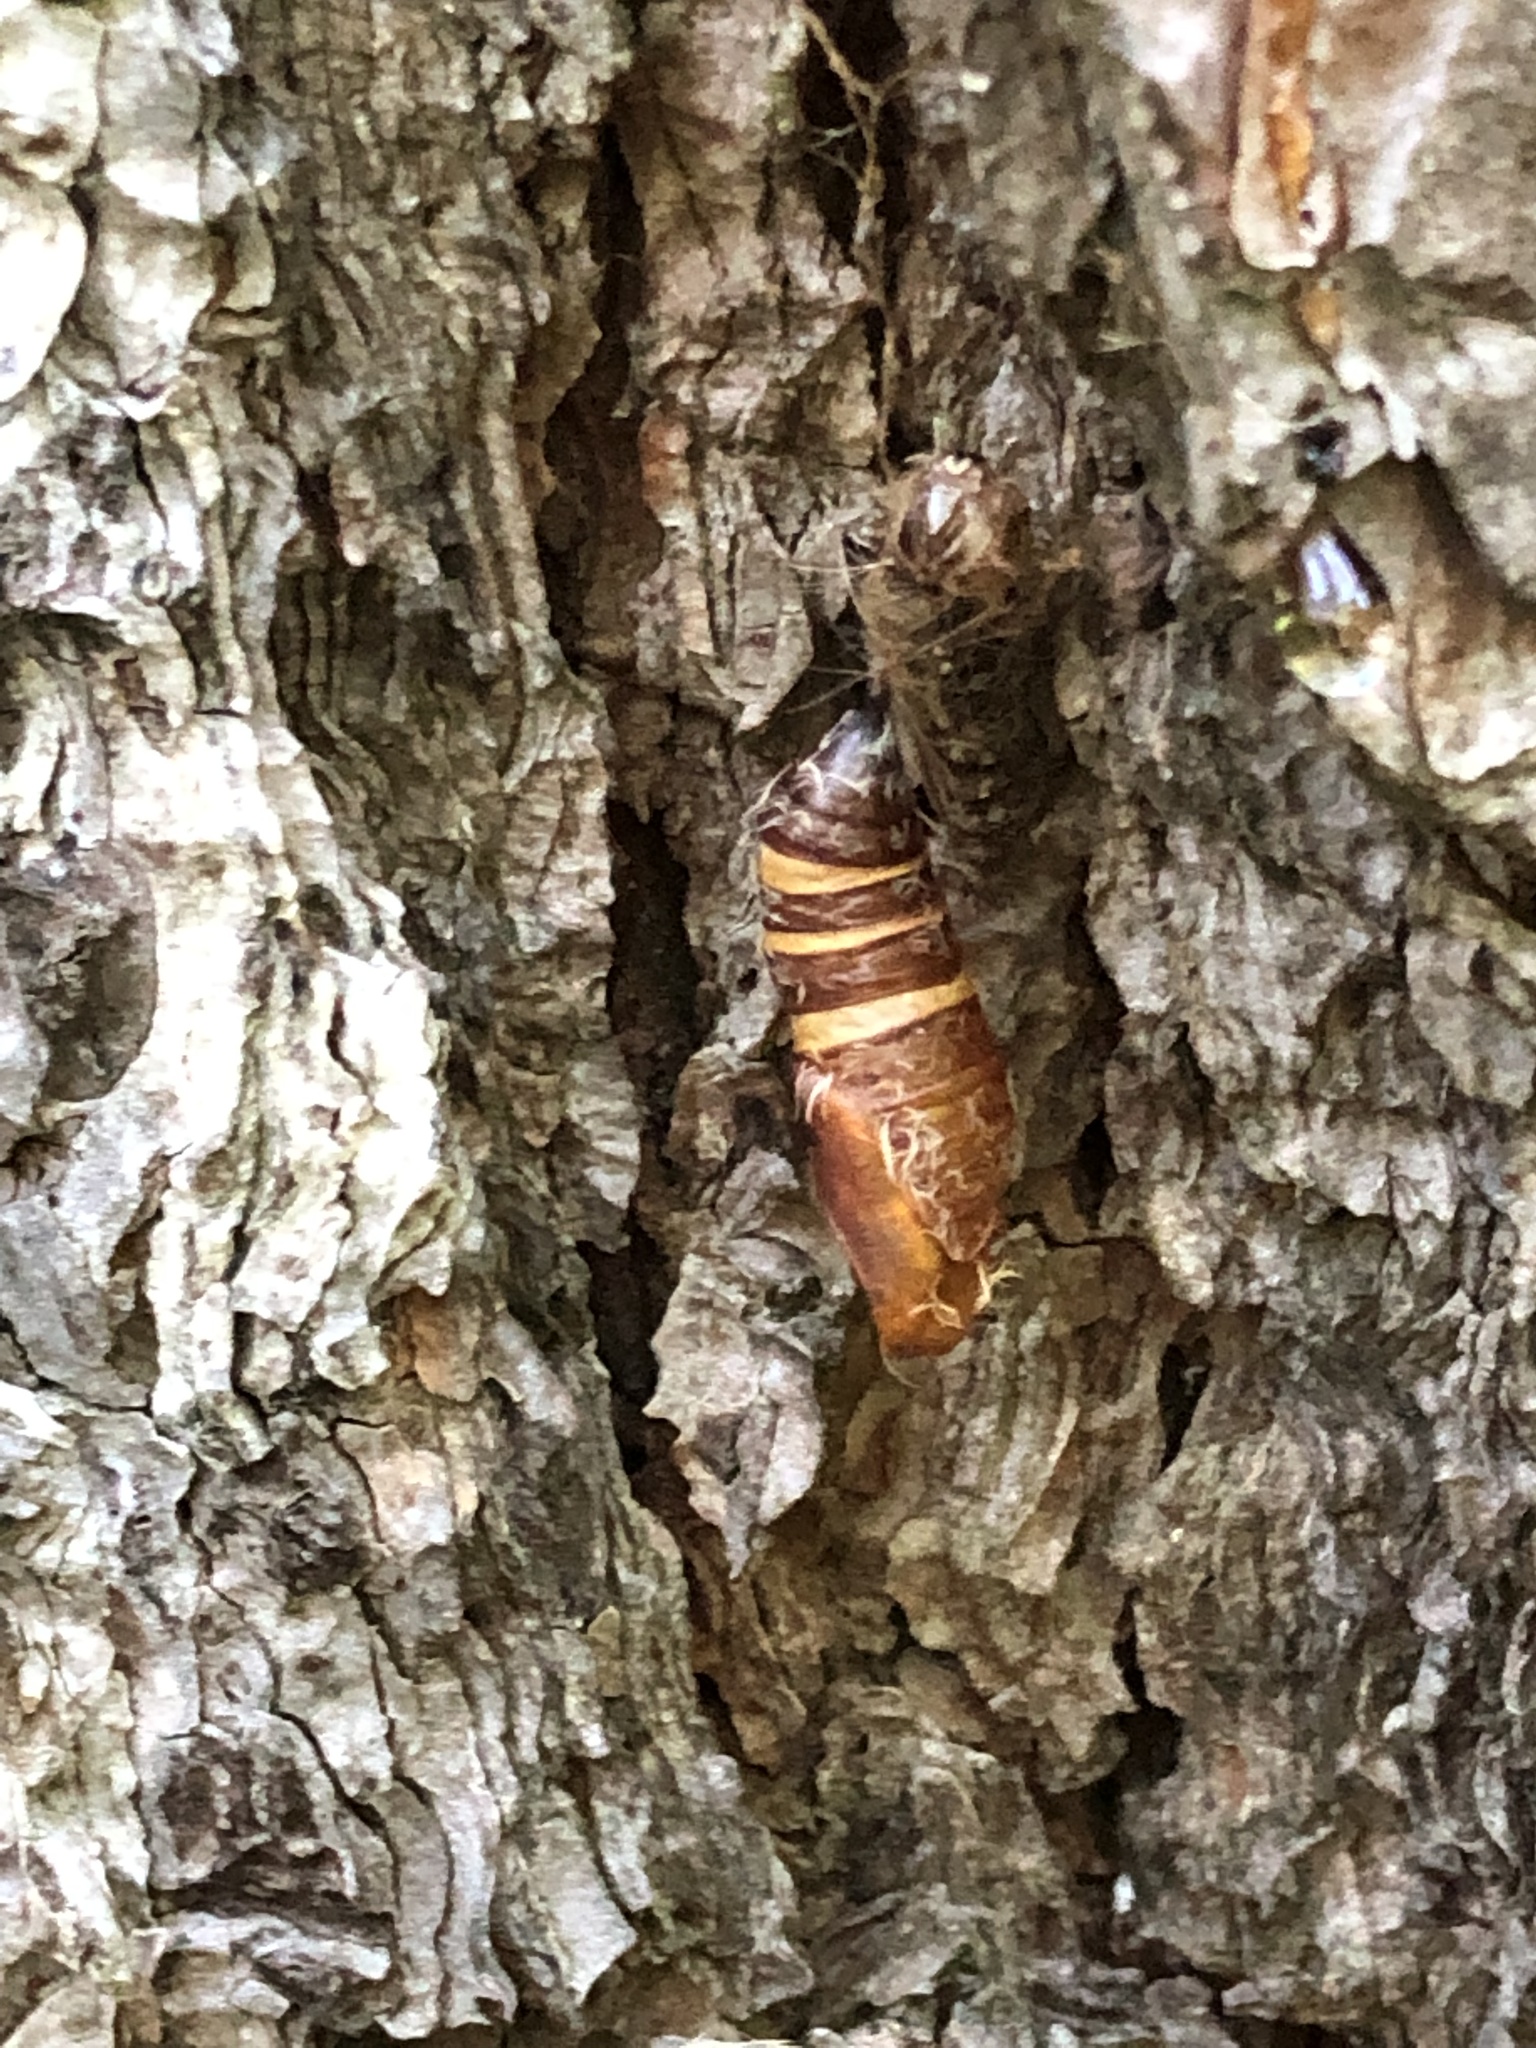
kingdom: Animalia
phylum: Arthropoda
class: Insecta
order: Lepidoptera
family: Erebidae
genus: Lymantria
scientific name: Lymantria dispar
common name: Gypsy moth
